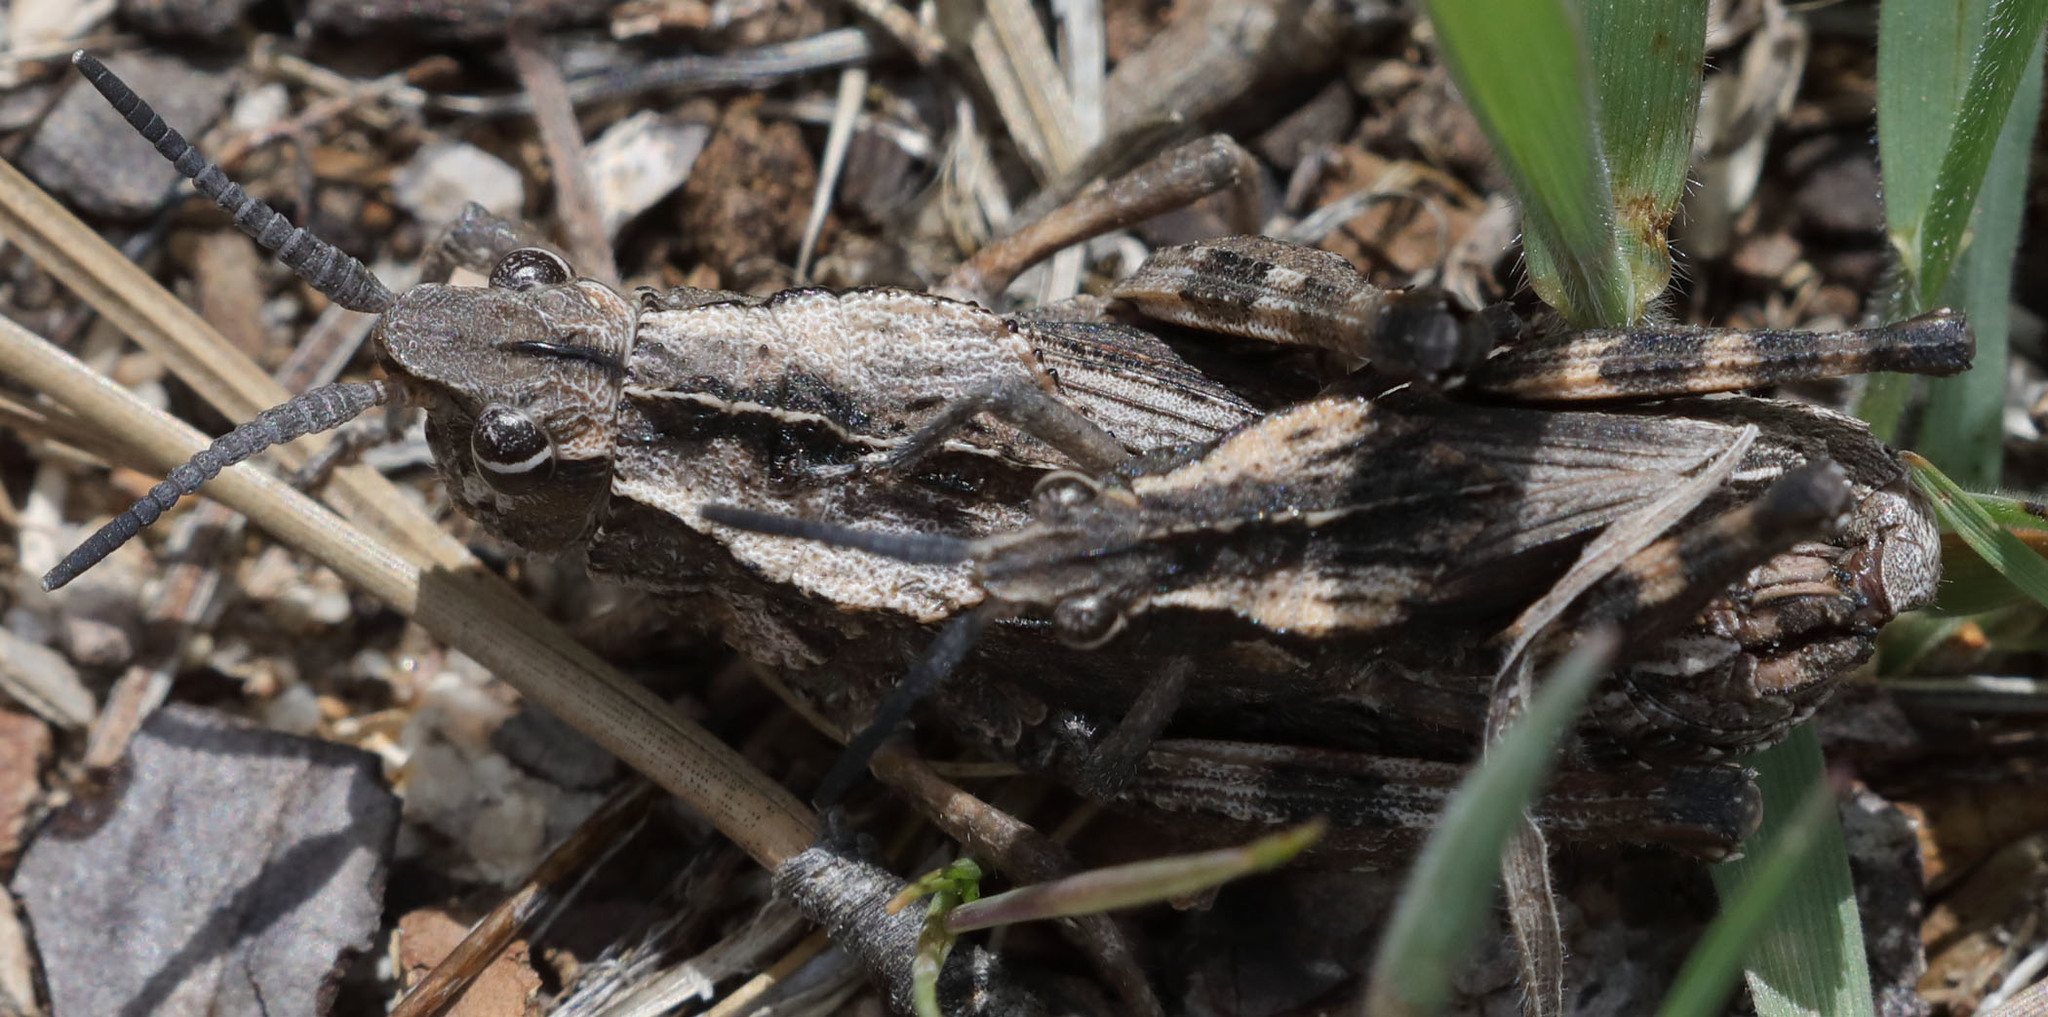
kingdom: Animalia
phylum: Arthropoda
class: Insecta
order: Orthoptera
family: Romaleidae
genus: Dracotettix
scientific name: Dracotettix monstrosus
